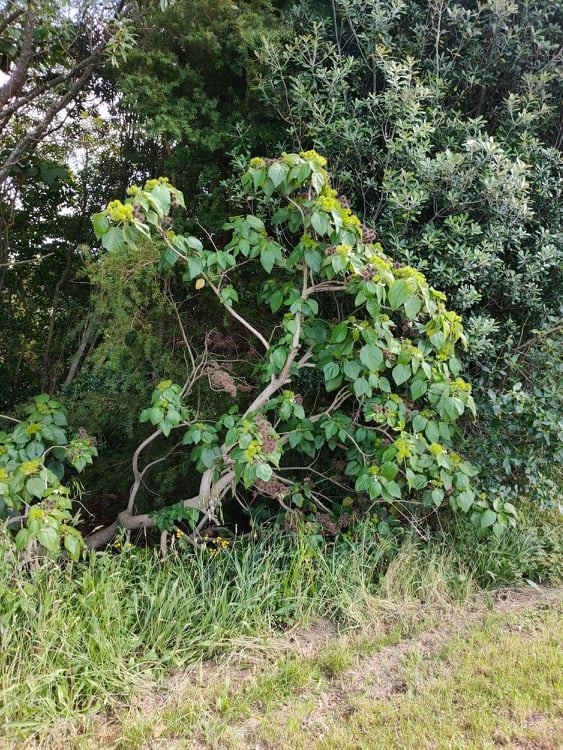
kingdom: Plantae
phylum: Tracheophyta
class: Magnoliopsida
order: Malvales
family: Malvaceae
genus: Entelea
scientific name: Entelea arborescens
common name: New zealand-mulberry
